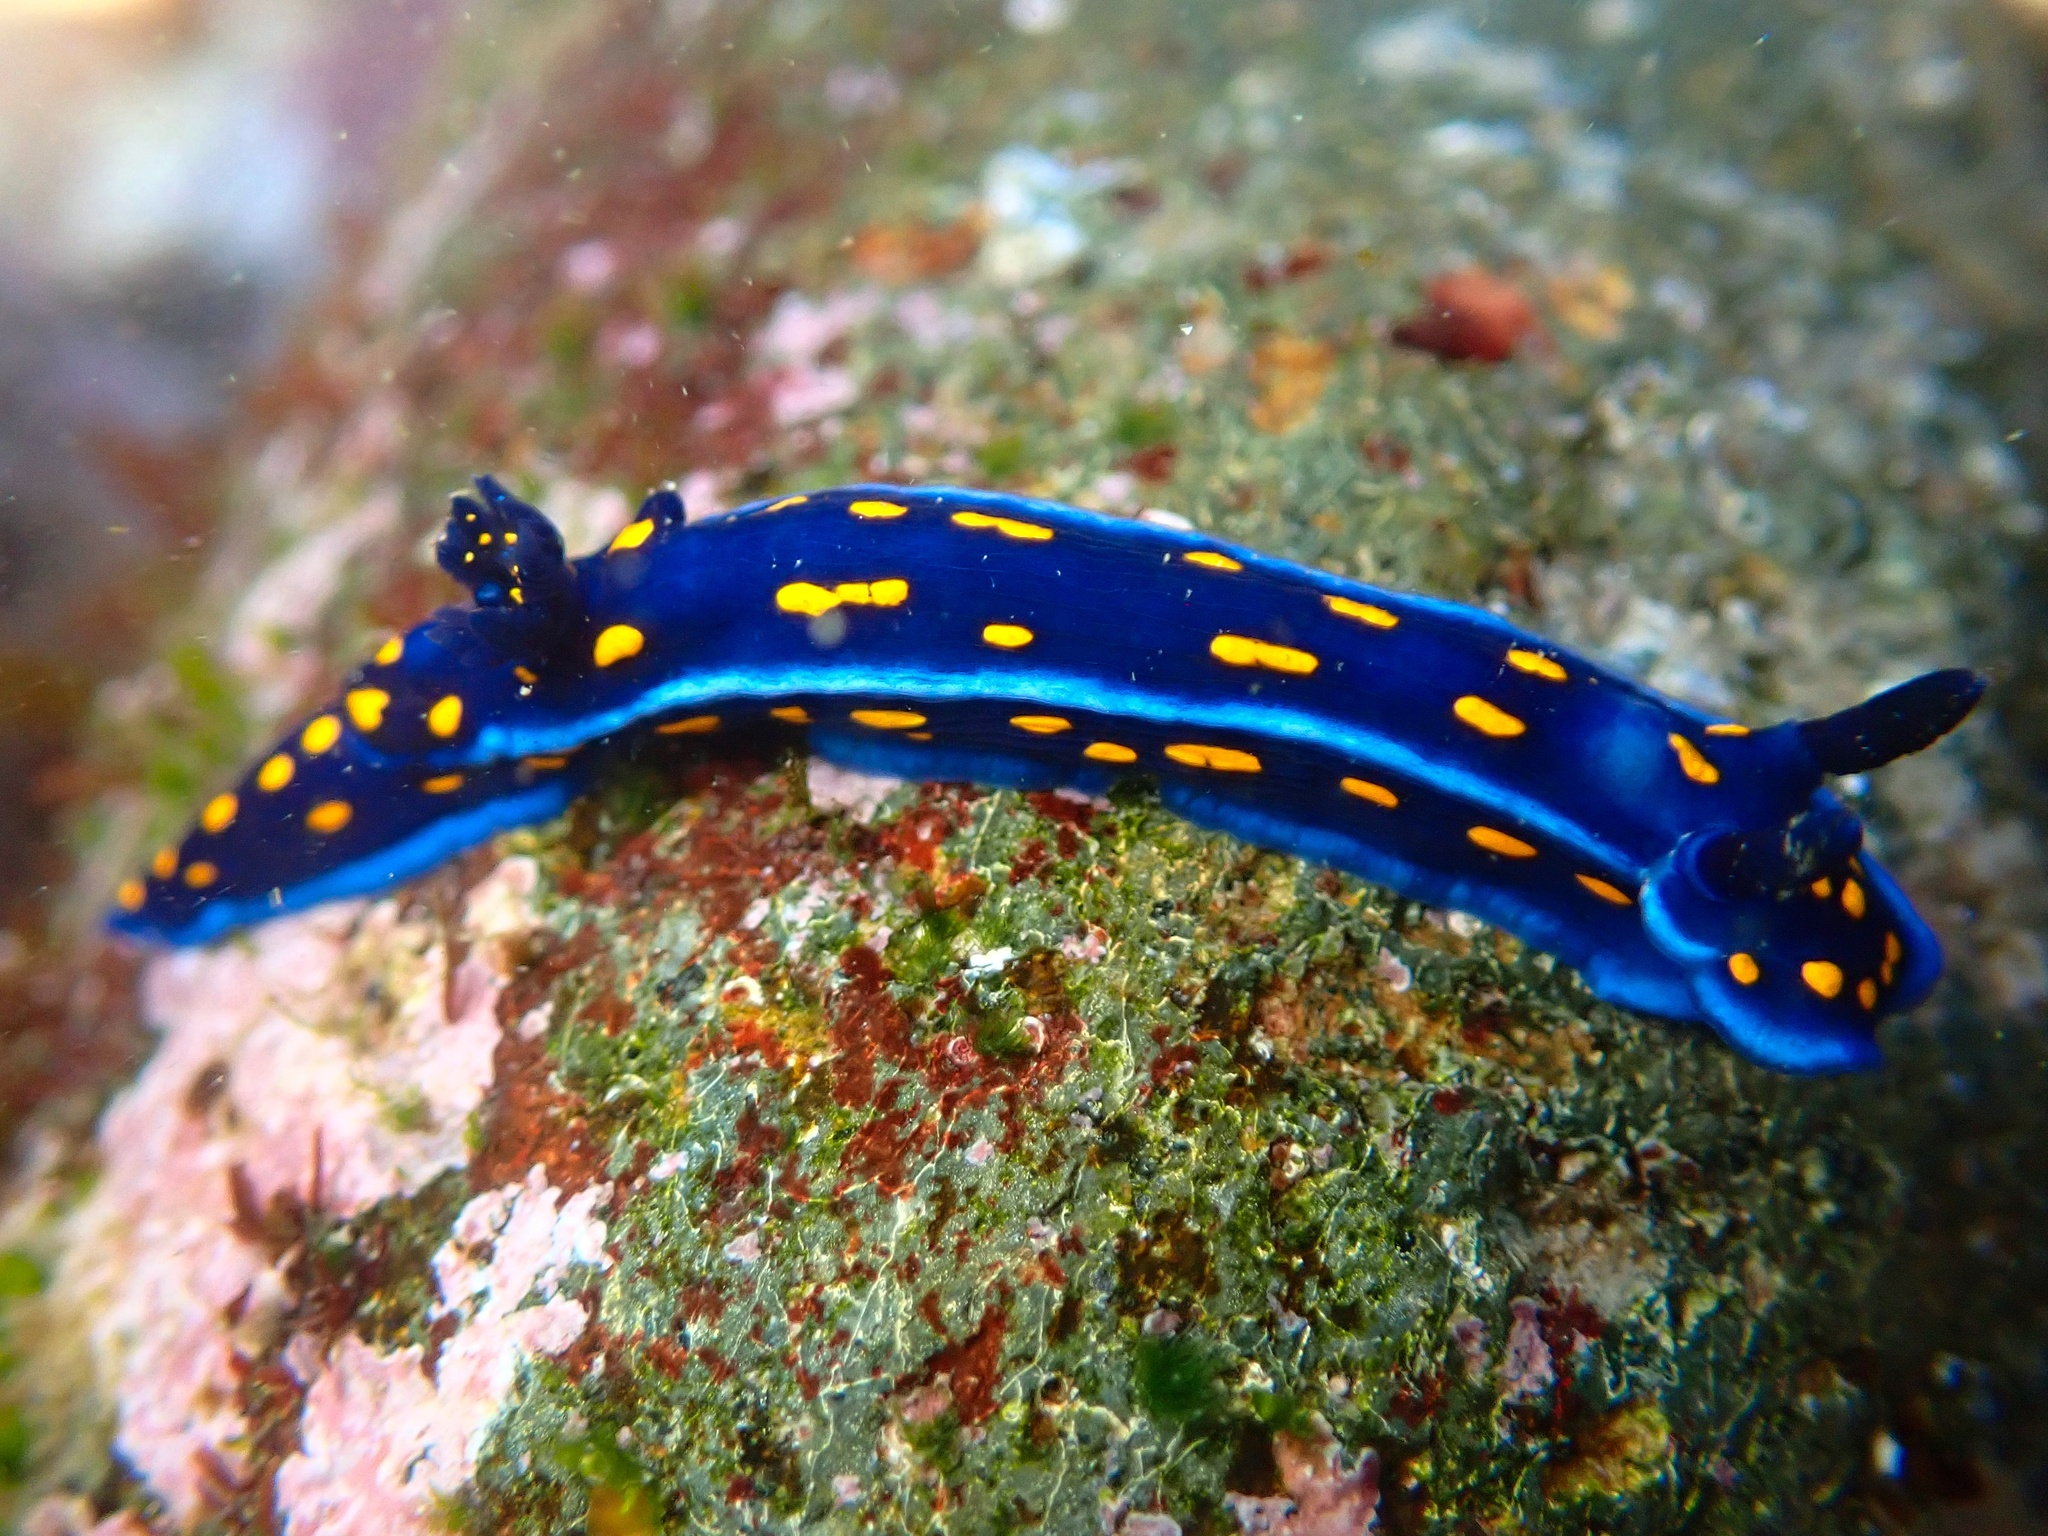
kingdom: Animalia
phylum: Mollusca
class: Gastropoda
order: Nudibranchia
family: Chromodorididae
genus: Felimare
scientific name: Felimare californiensis
